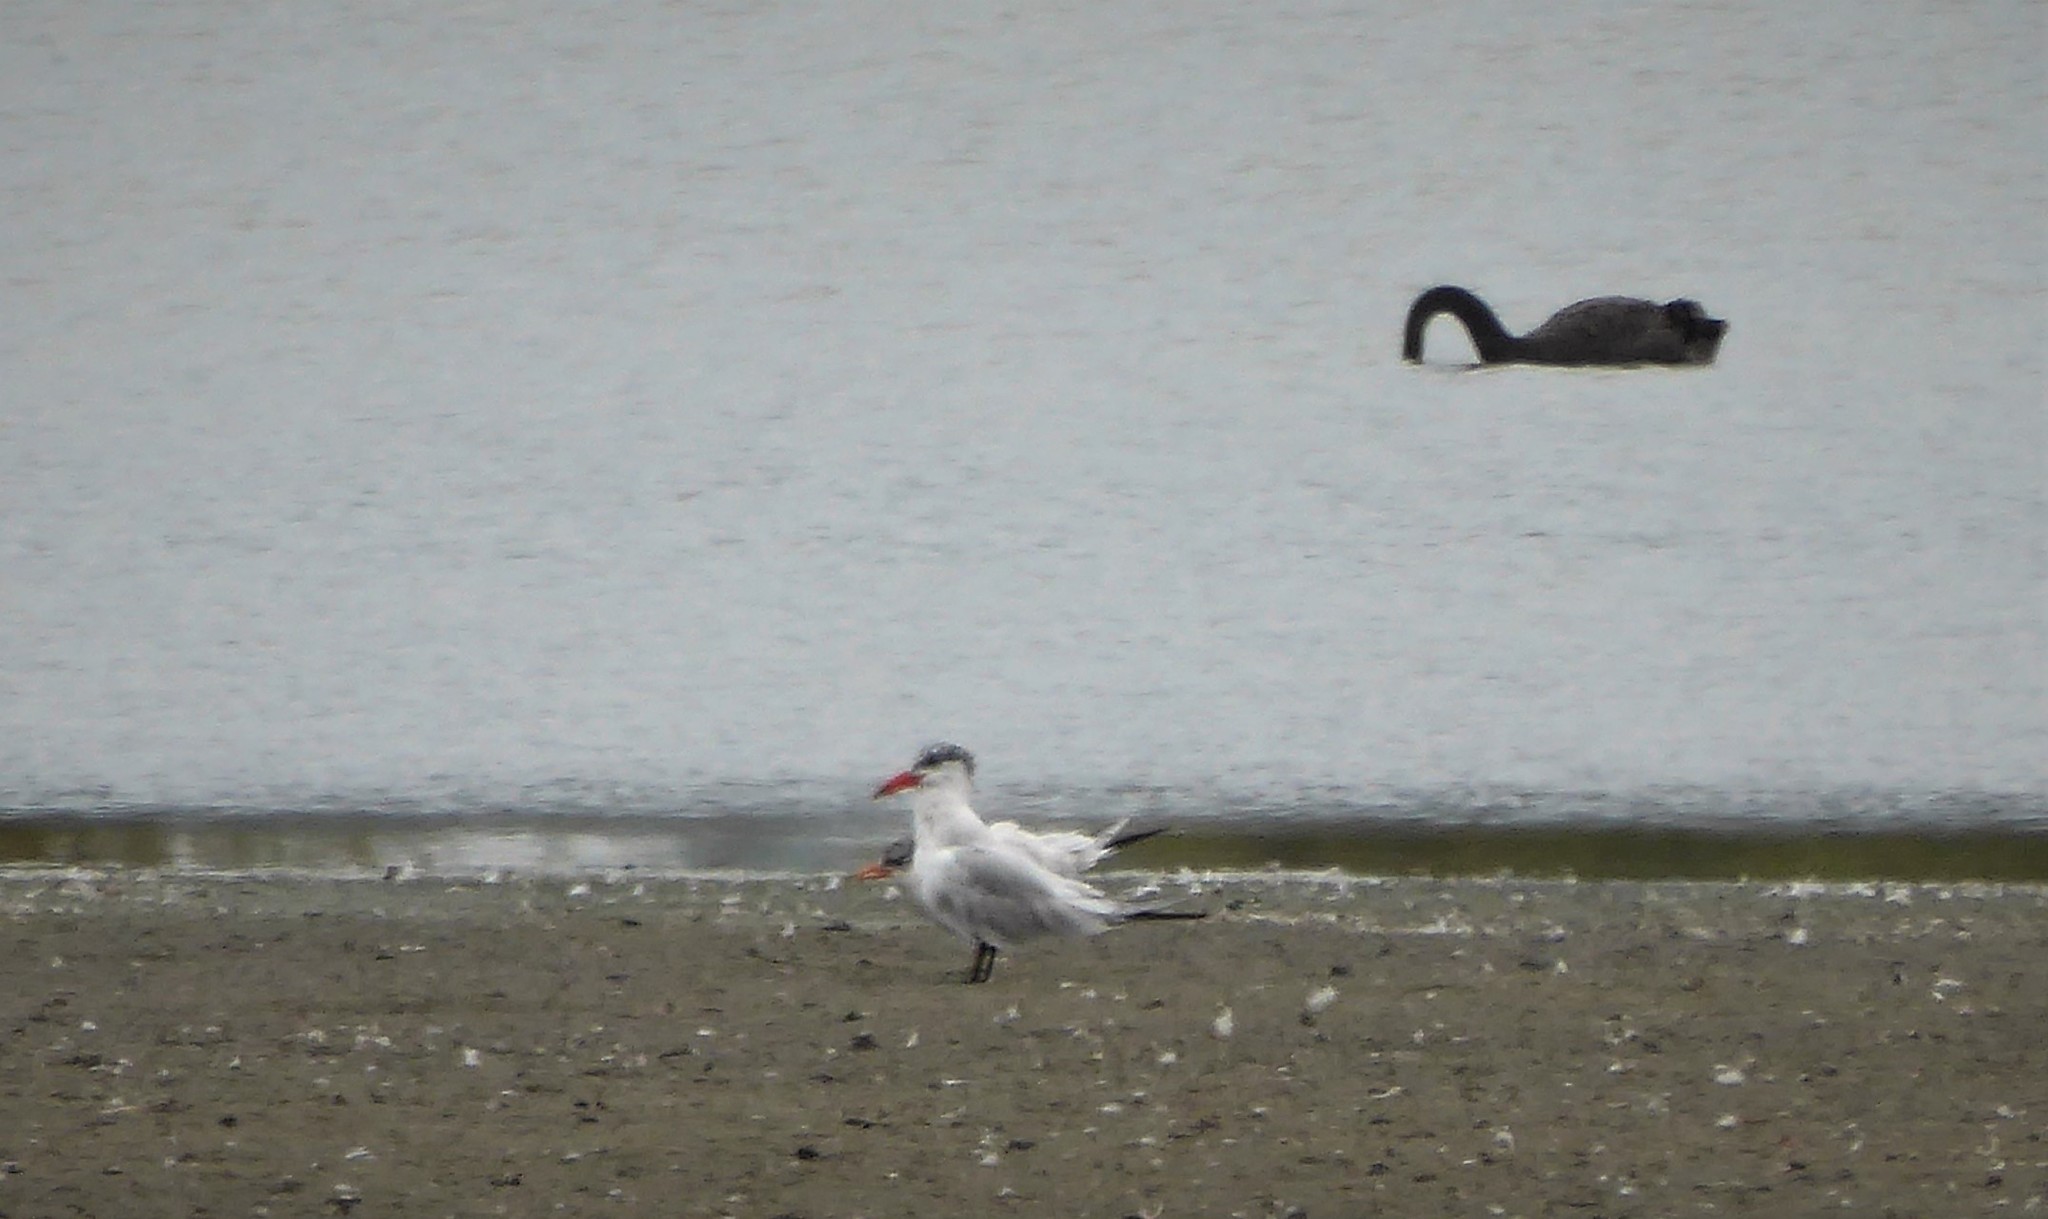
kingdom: Animalia
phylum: Chordata
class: Aves
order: Charadriiformes
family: Laridae
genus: Hydroprogne
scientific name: Hydroprogne caspia
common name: Caspian tern
